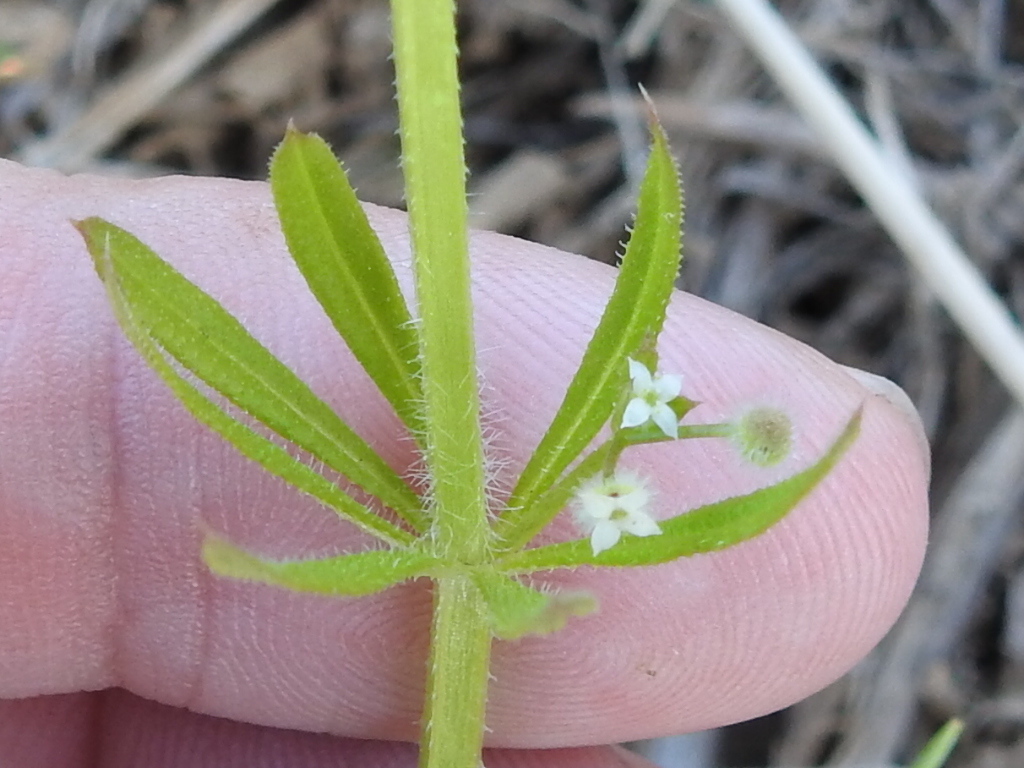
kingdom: Plantae
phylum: Tracheophyta
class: Magnoliopsida
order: Gentianales
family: Rubiaceae
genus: Galium
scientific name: Galium aparine
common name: Cleavers
